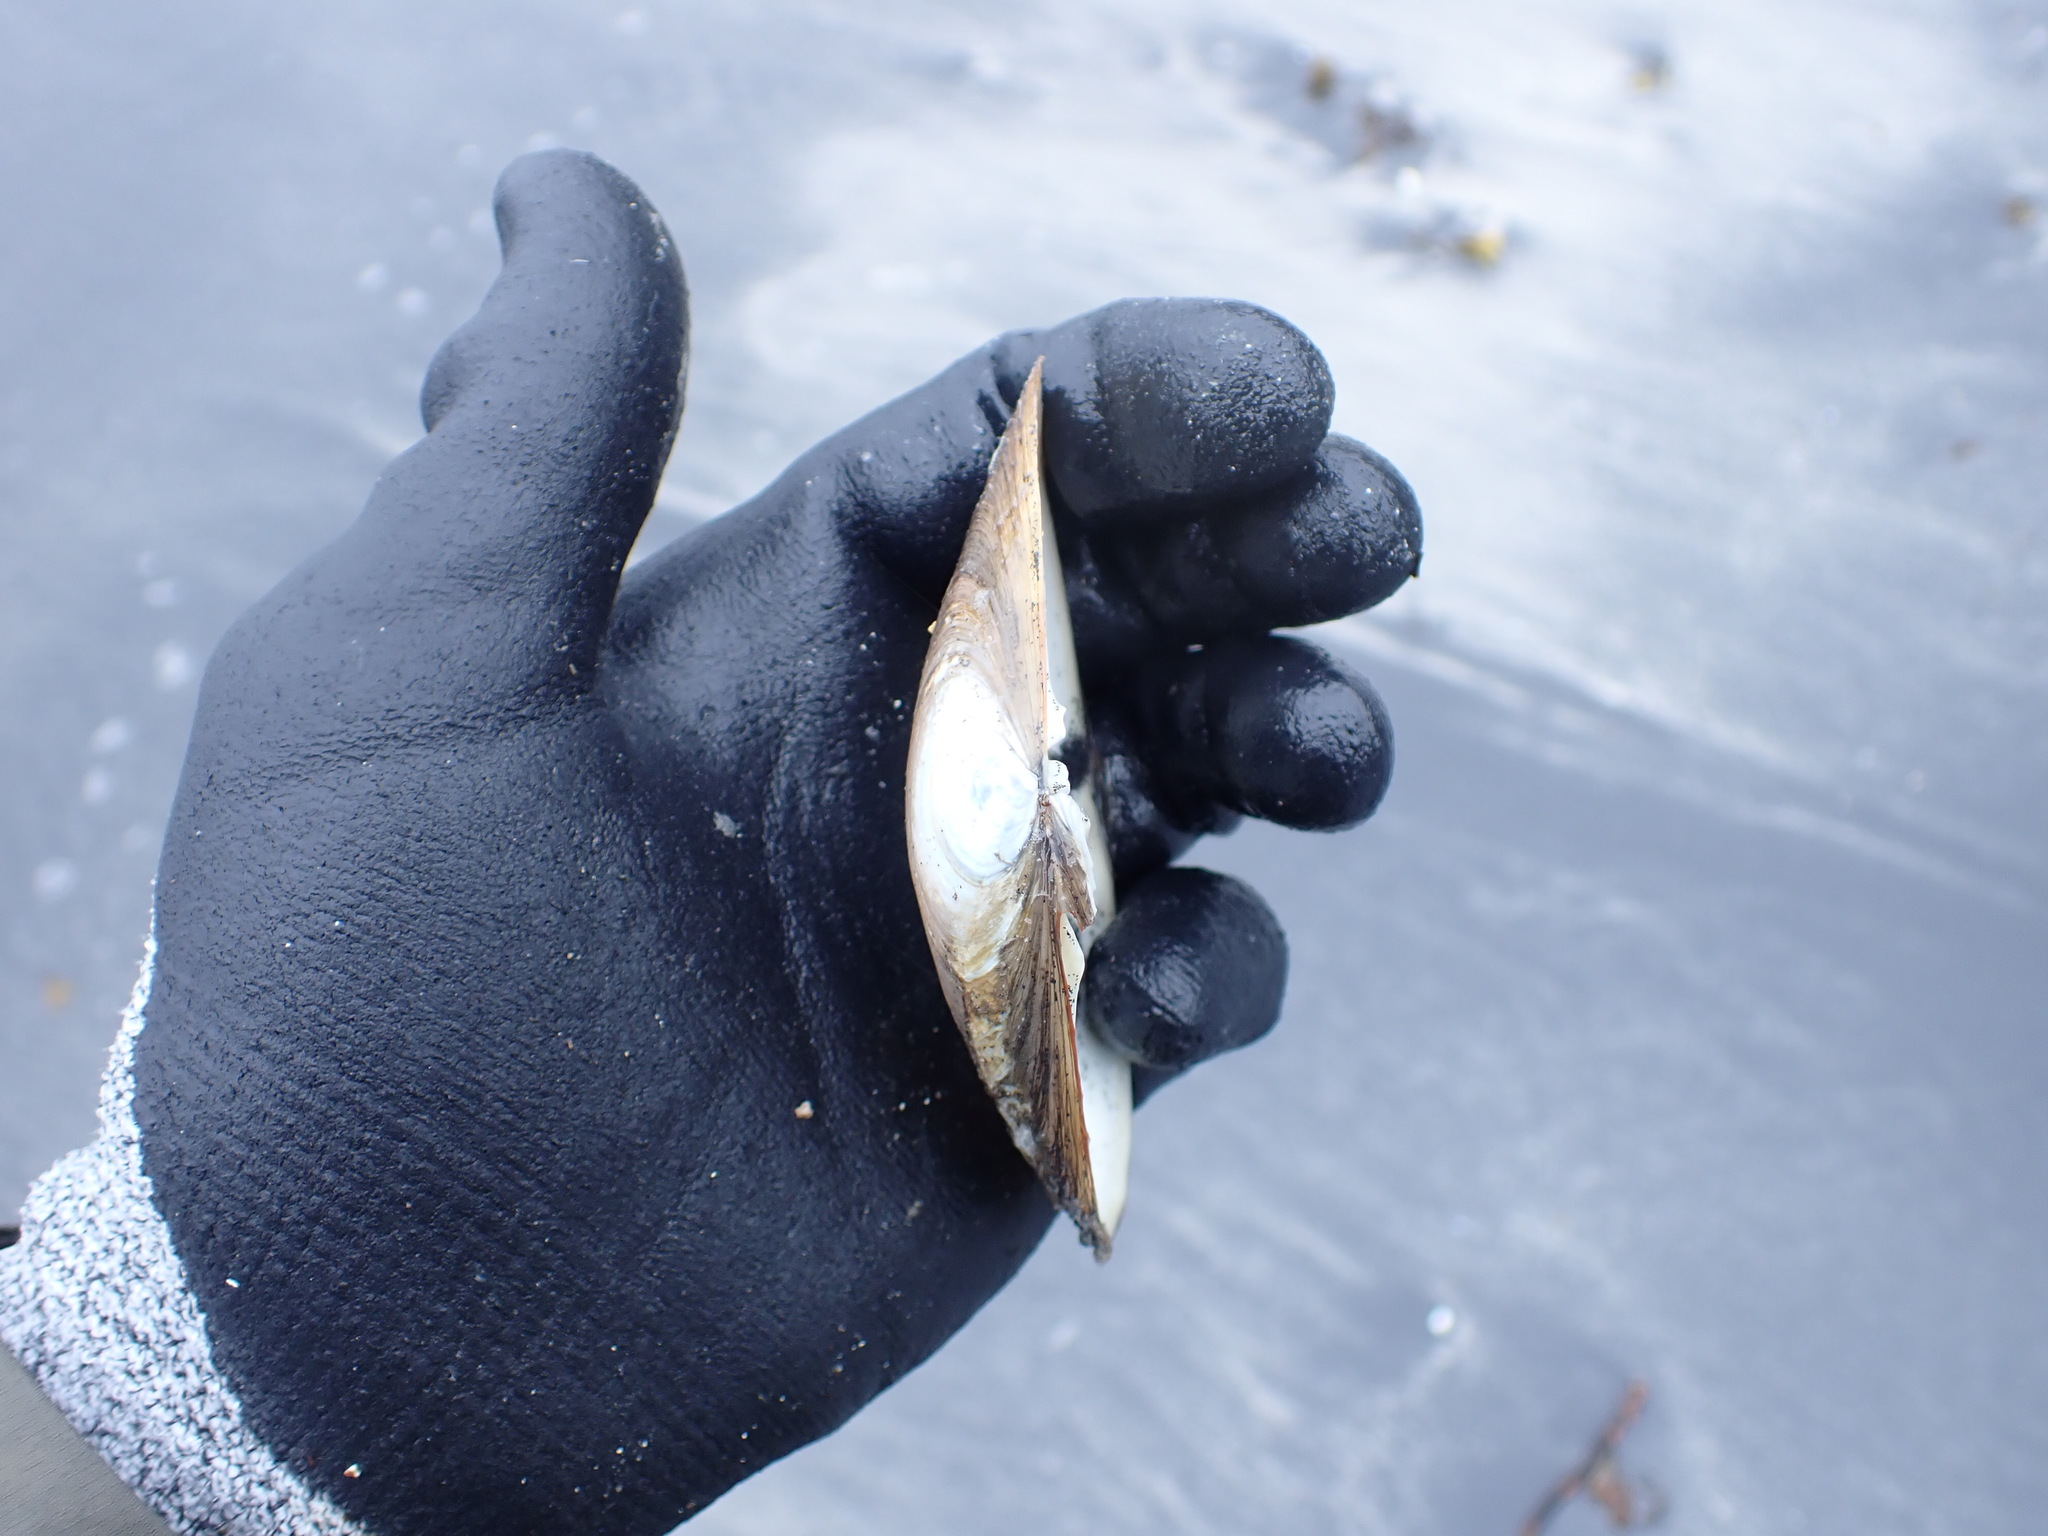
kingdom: Animalia
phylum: Mollusca
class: Bivalvia
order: Venerida
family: Mactridae
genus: Mactromeris
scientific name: Mactromeris polynyma
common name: Arctic surf clam
